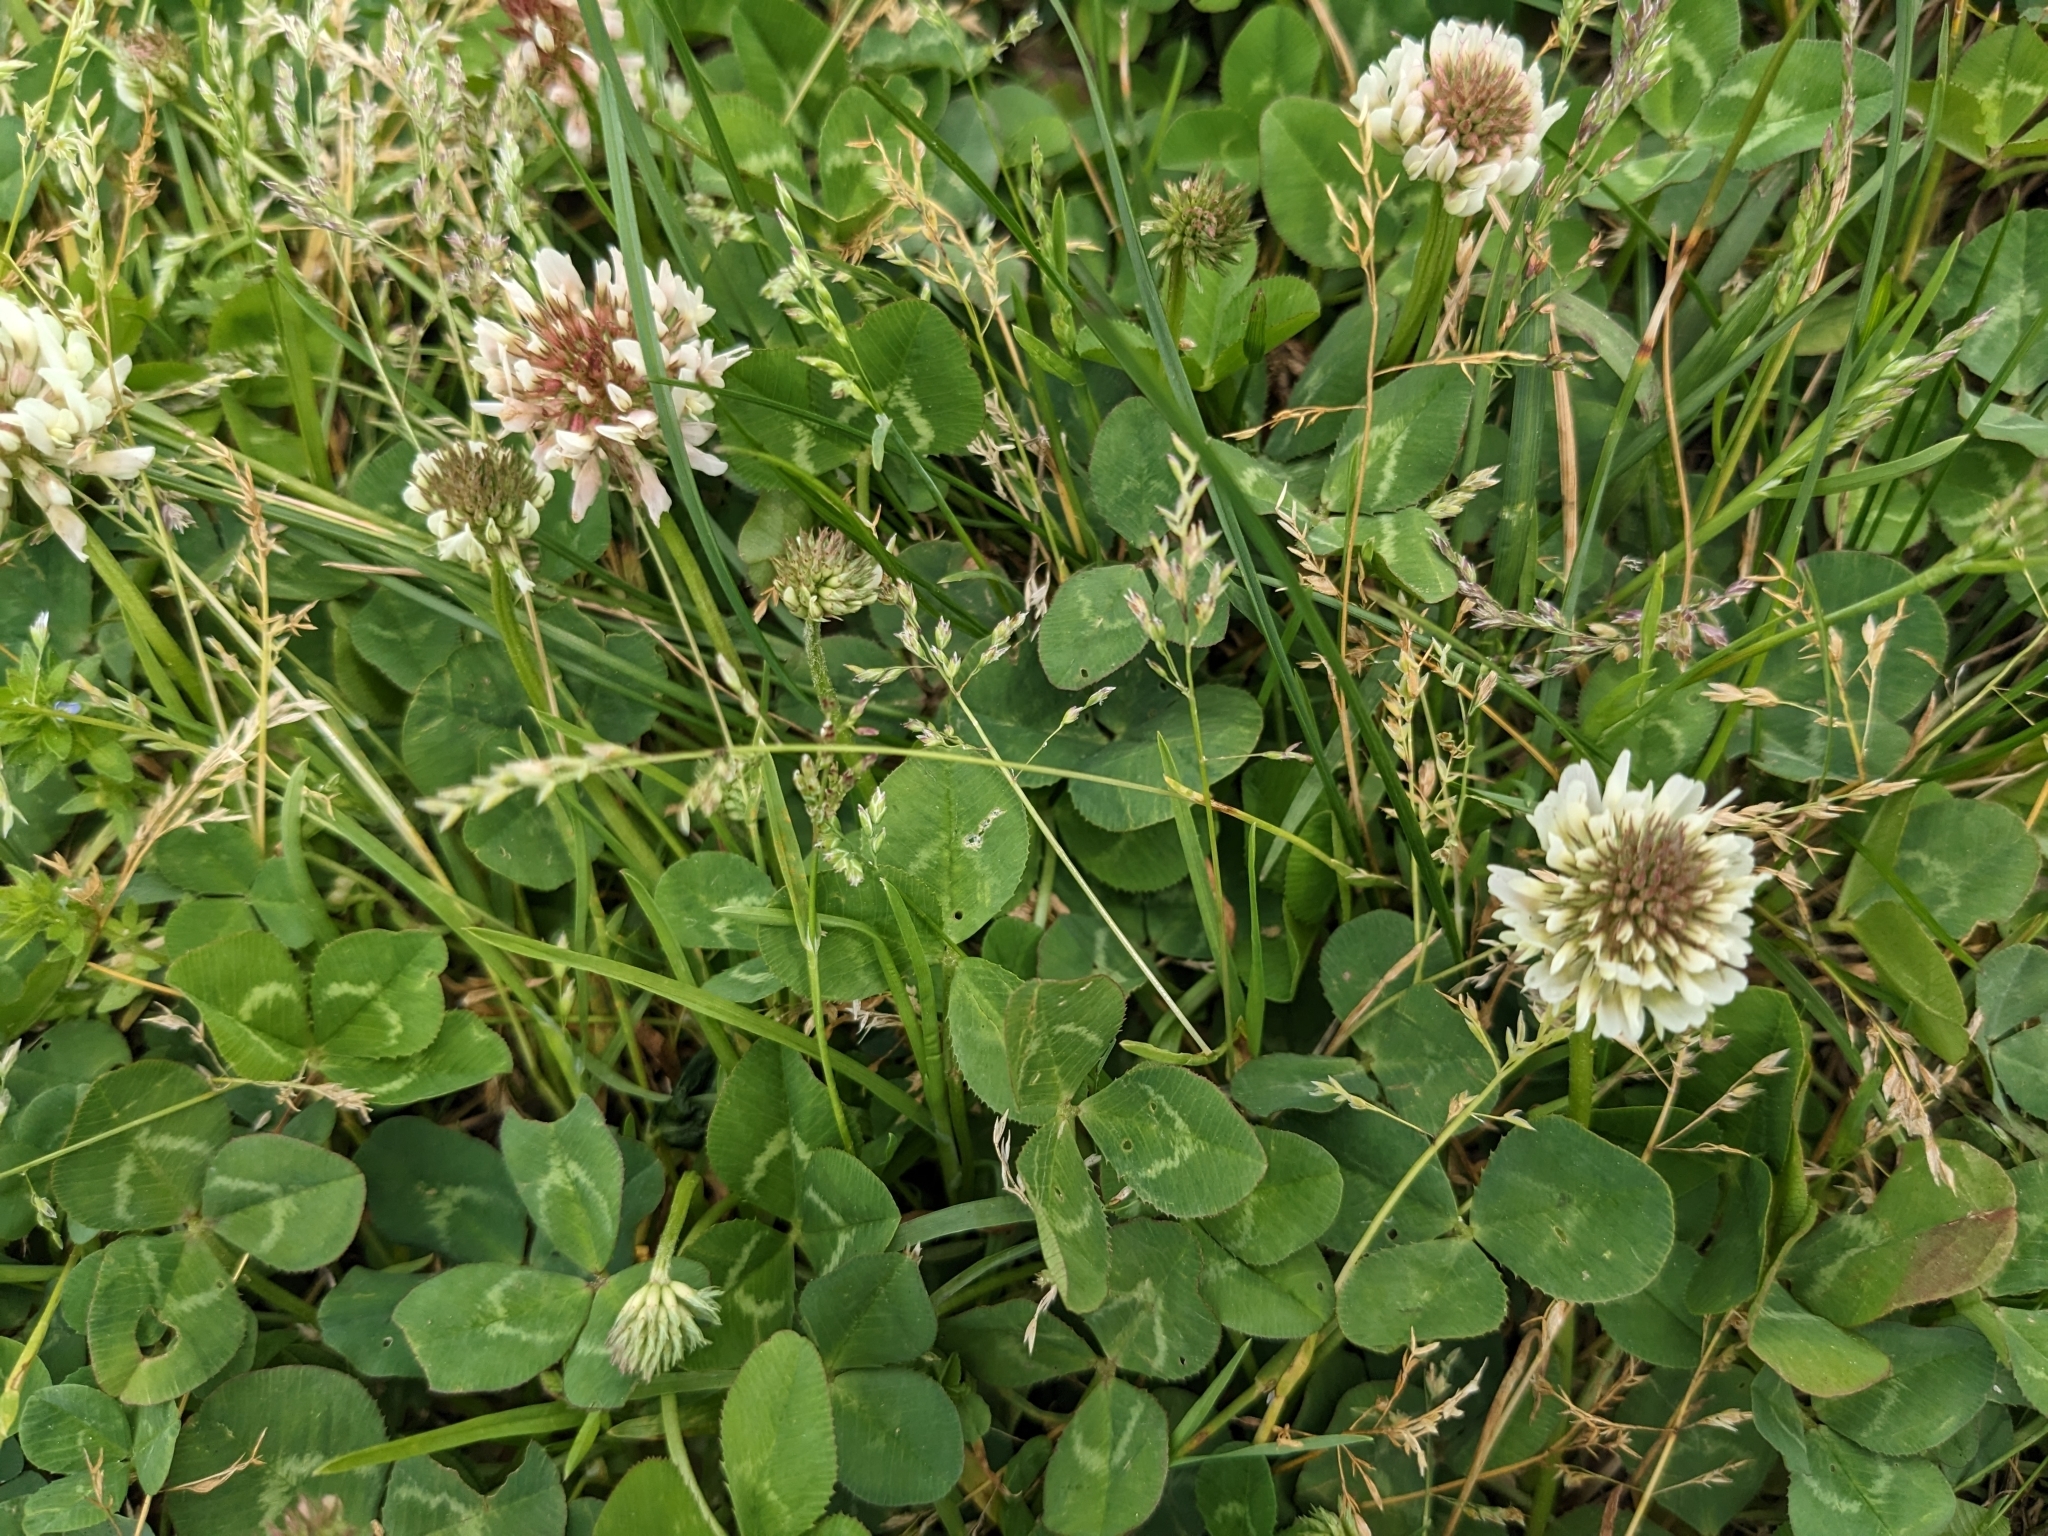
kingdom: Plantae
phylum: Tracheophyta
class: Magnoliopsida
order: Fabales
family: Fabaceae
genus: Trifolium
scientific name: Trifolium repens
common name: White clover
